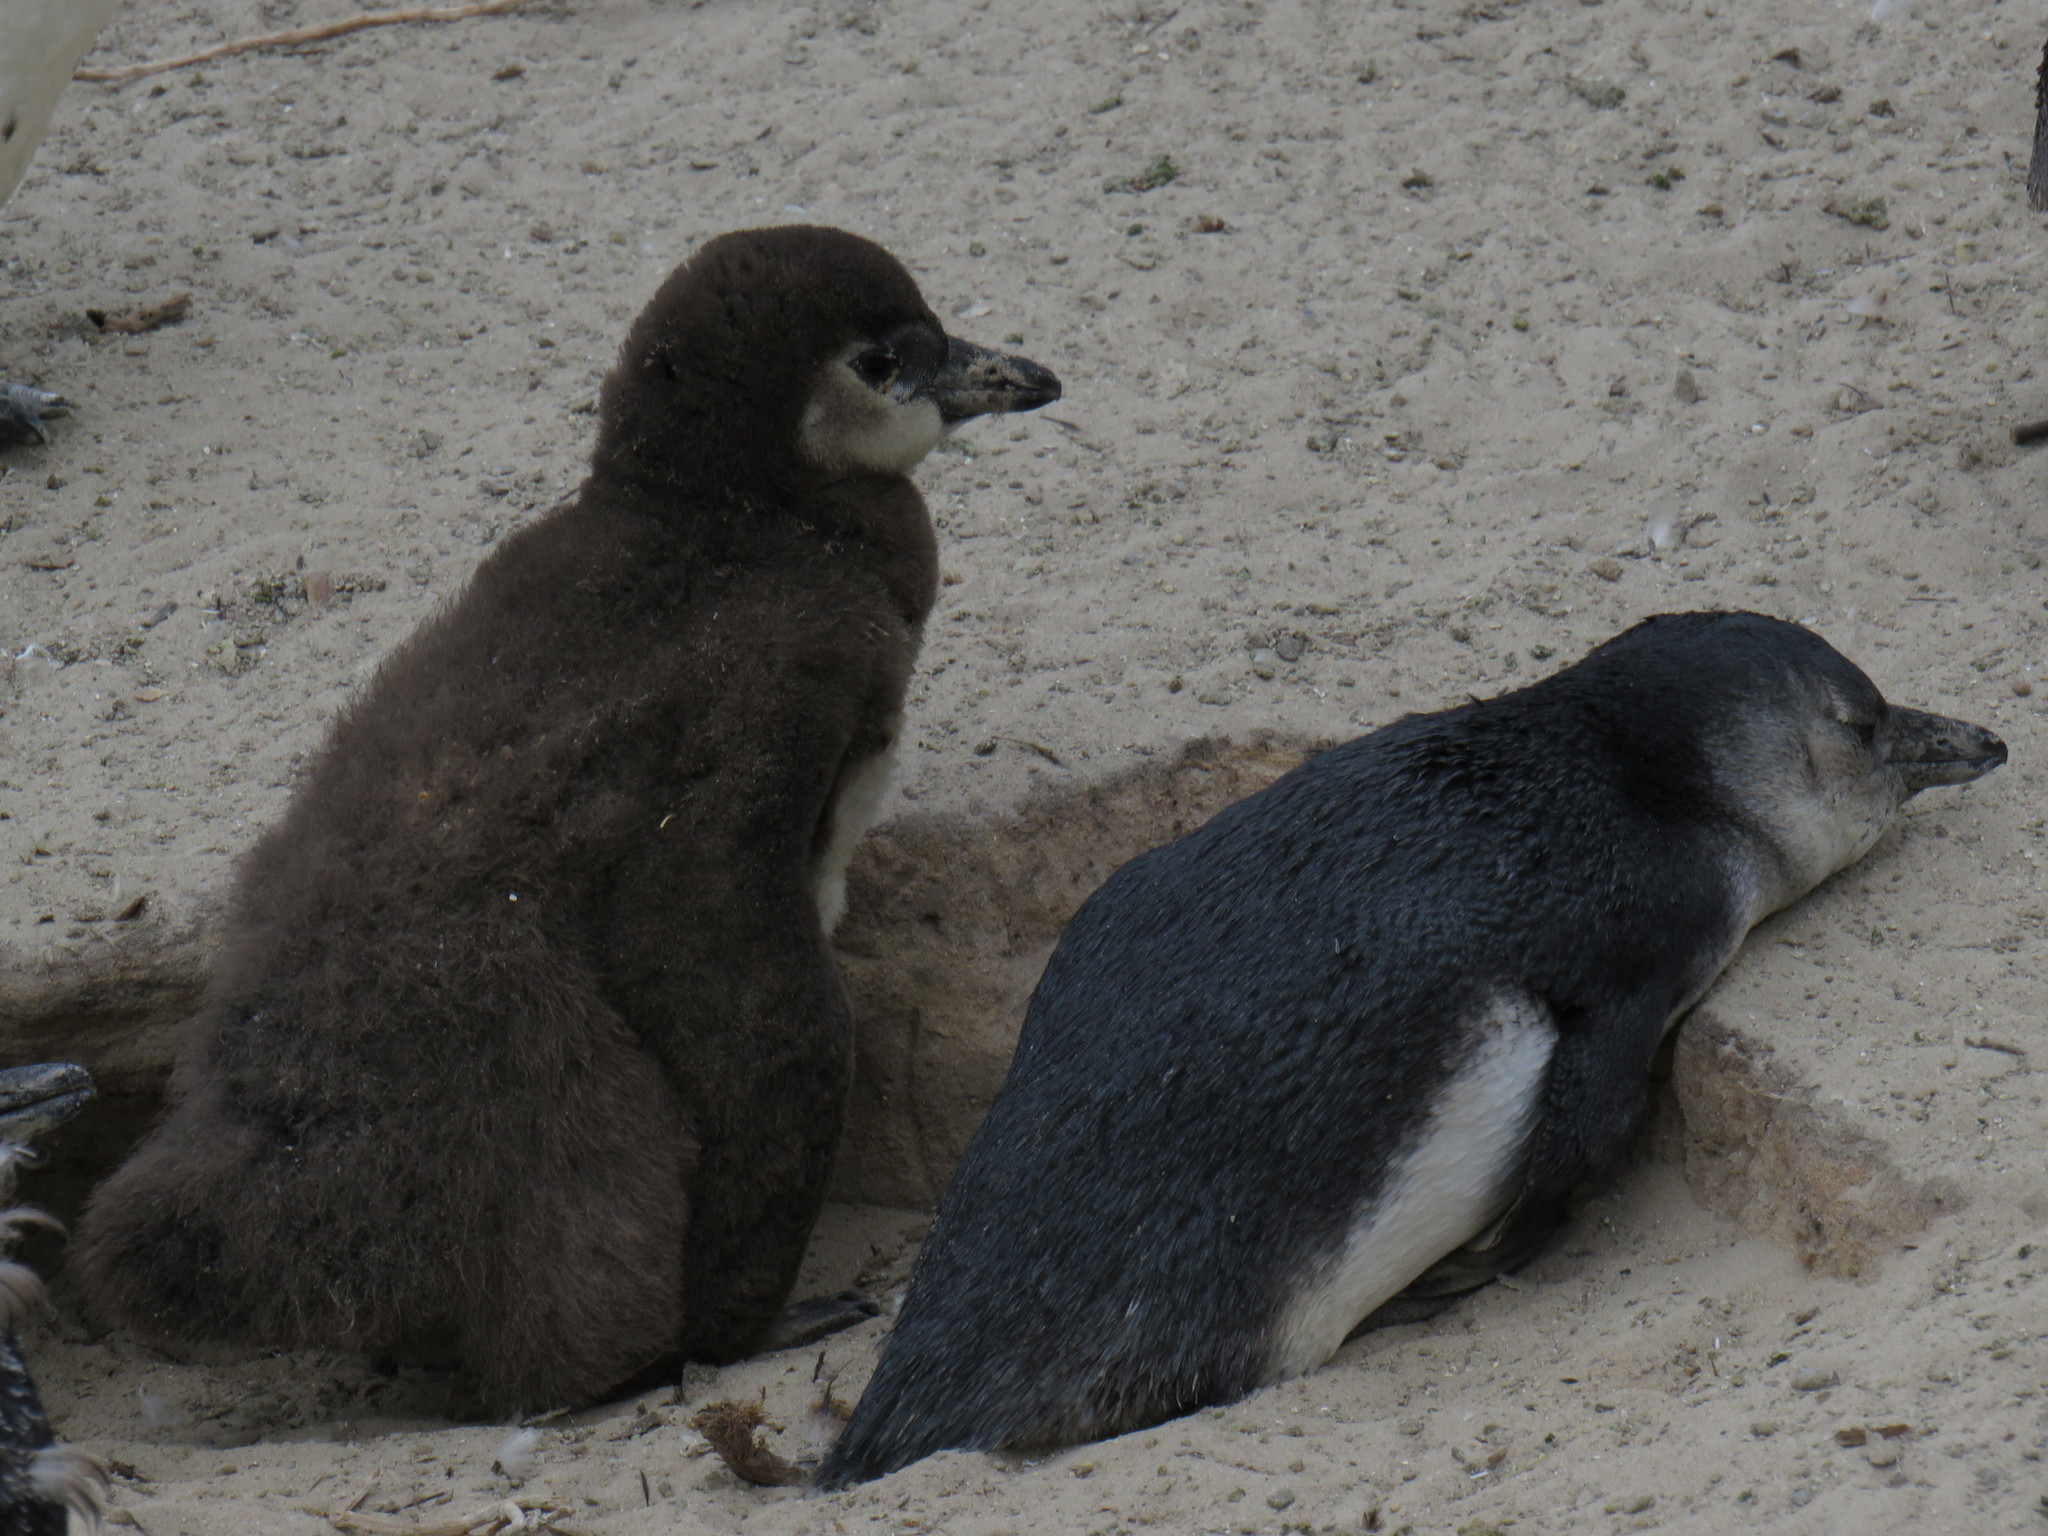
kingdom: Animalia
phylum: Chordata
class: Aves
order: Sphenisciformes
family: Spheniscidae
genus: Spheniscus
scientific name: Spheniscus demersus
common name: African penguin
